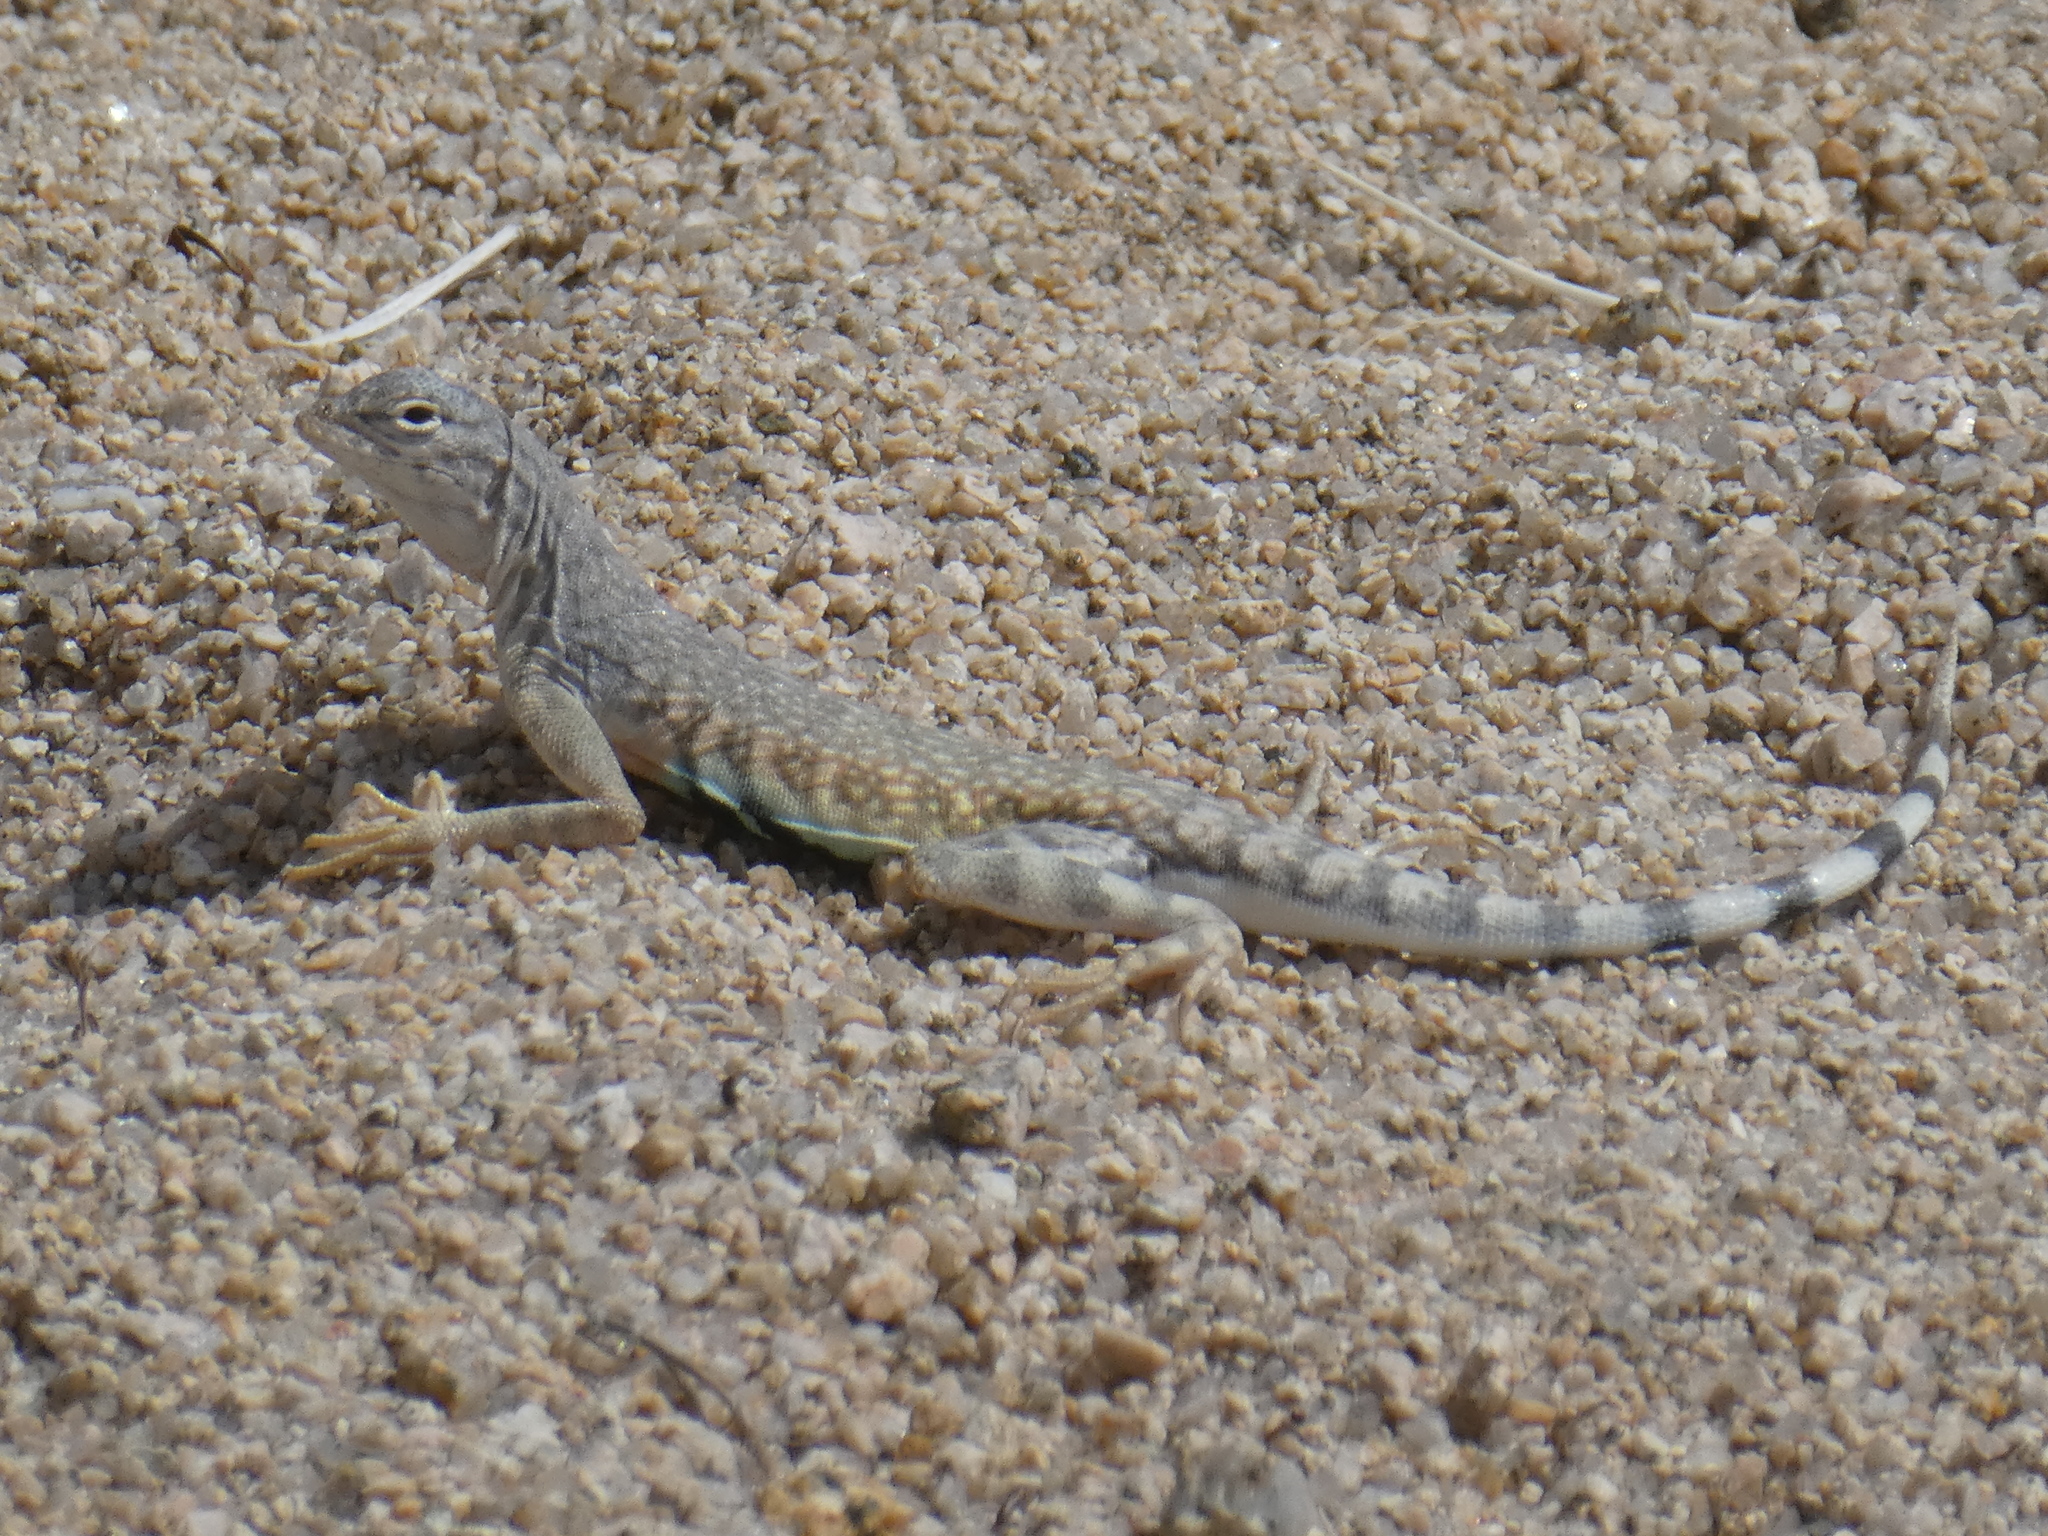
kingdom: Animalia
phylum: Chordata
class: Squamata
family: Phrynosomatidae
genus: Callisaurus
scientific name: Callisaurus draconoides
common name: Zebra-tailed lizard
